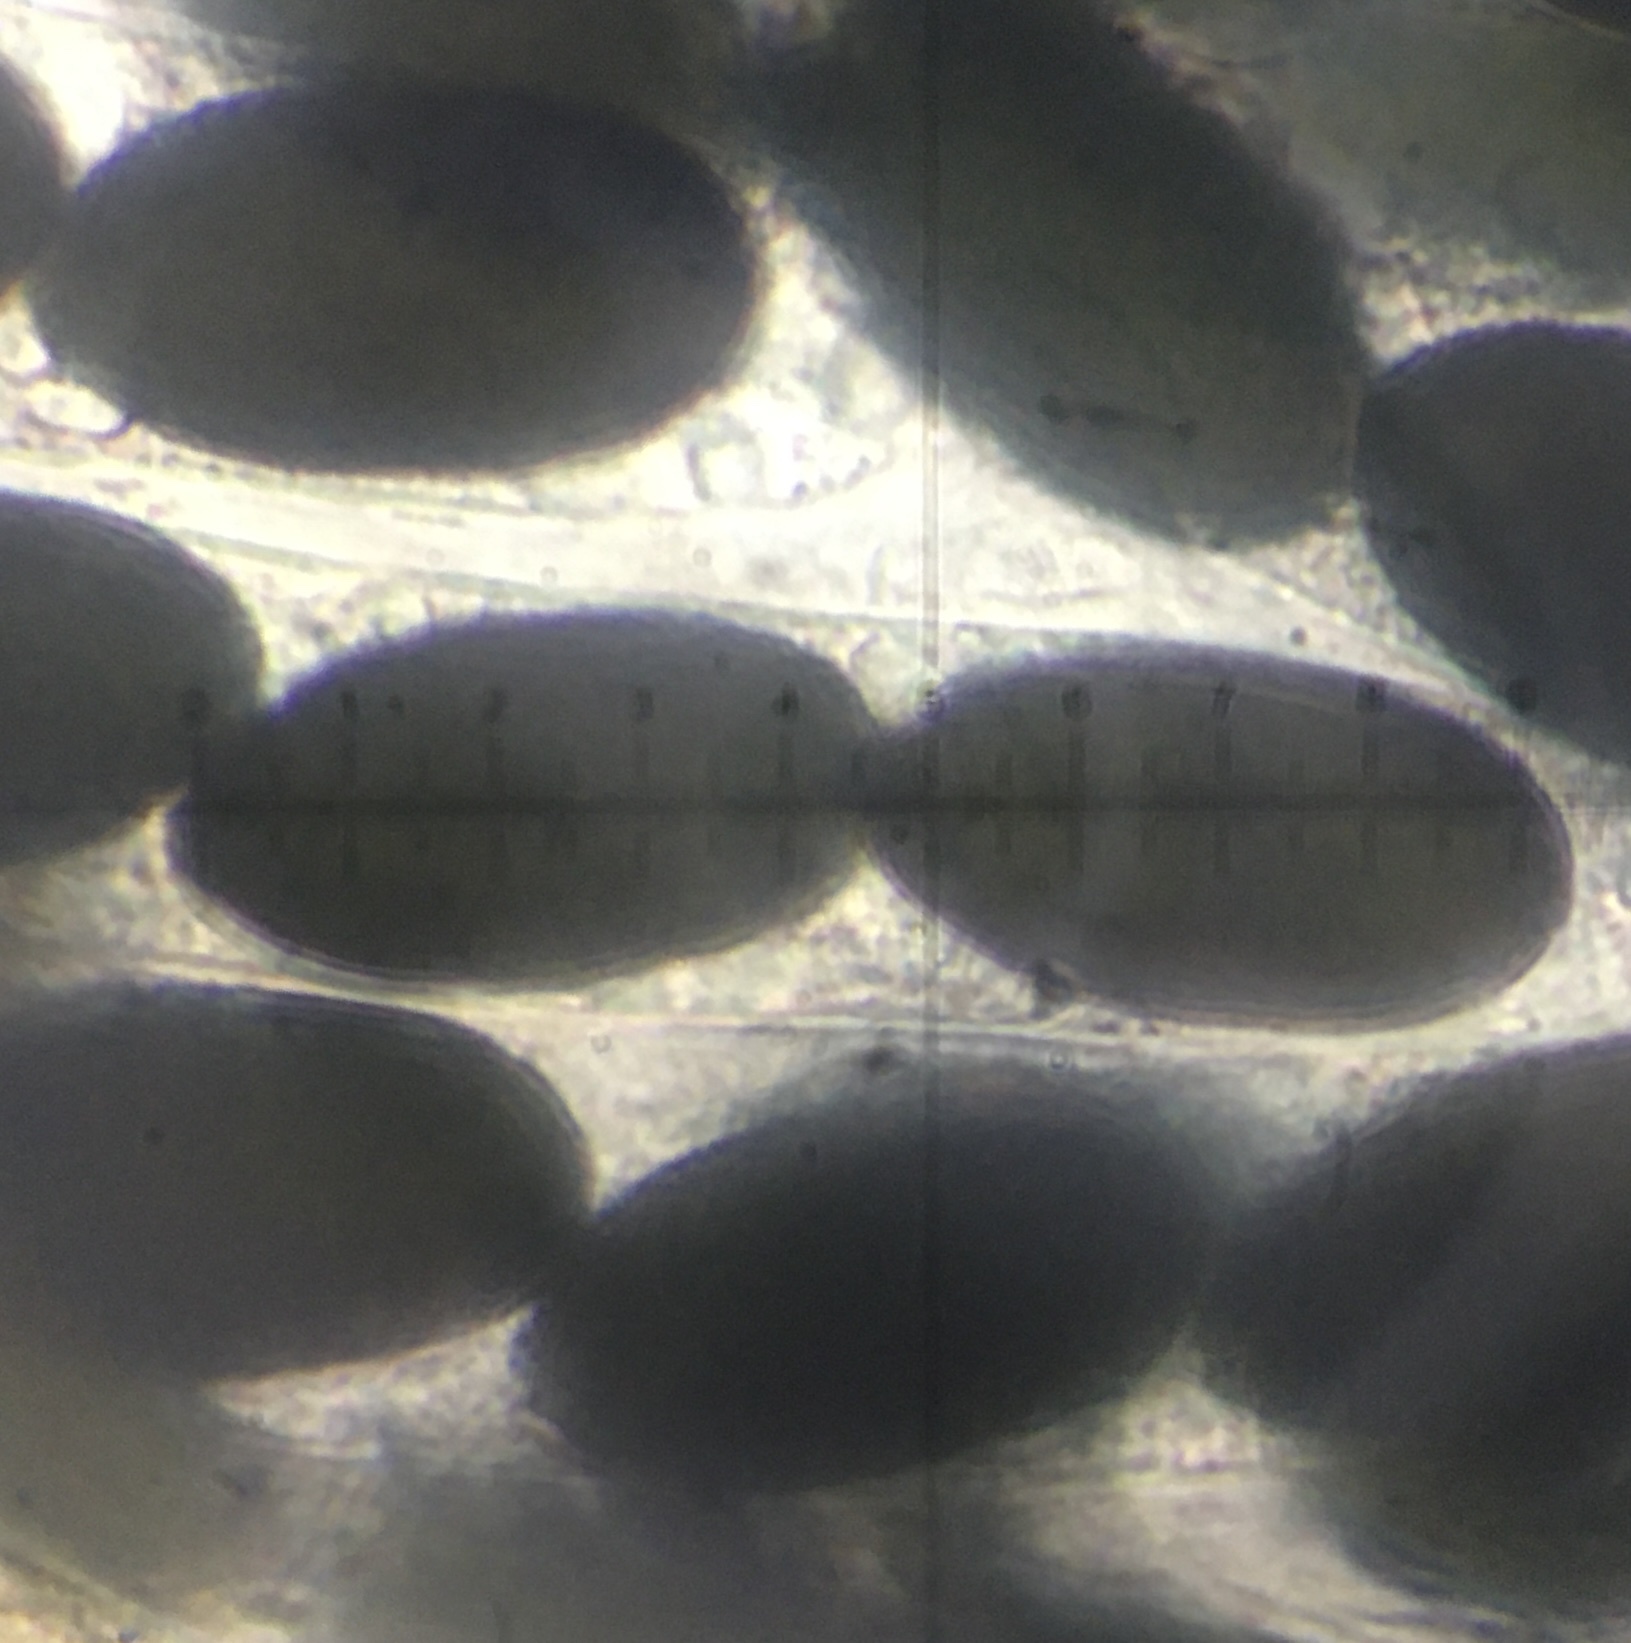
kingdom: Fungi
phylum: Ascomycota
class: Sordariomycetes
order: Sordariales
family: Podosporaceae
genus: Podospora
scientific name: Podospora australis
